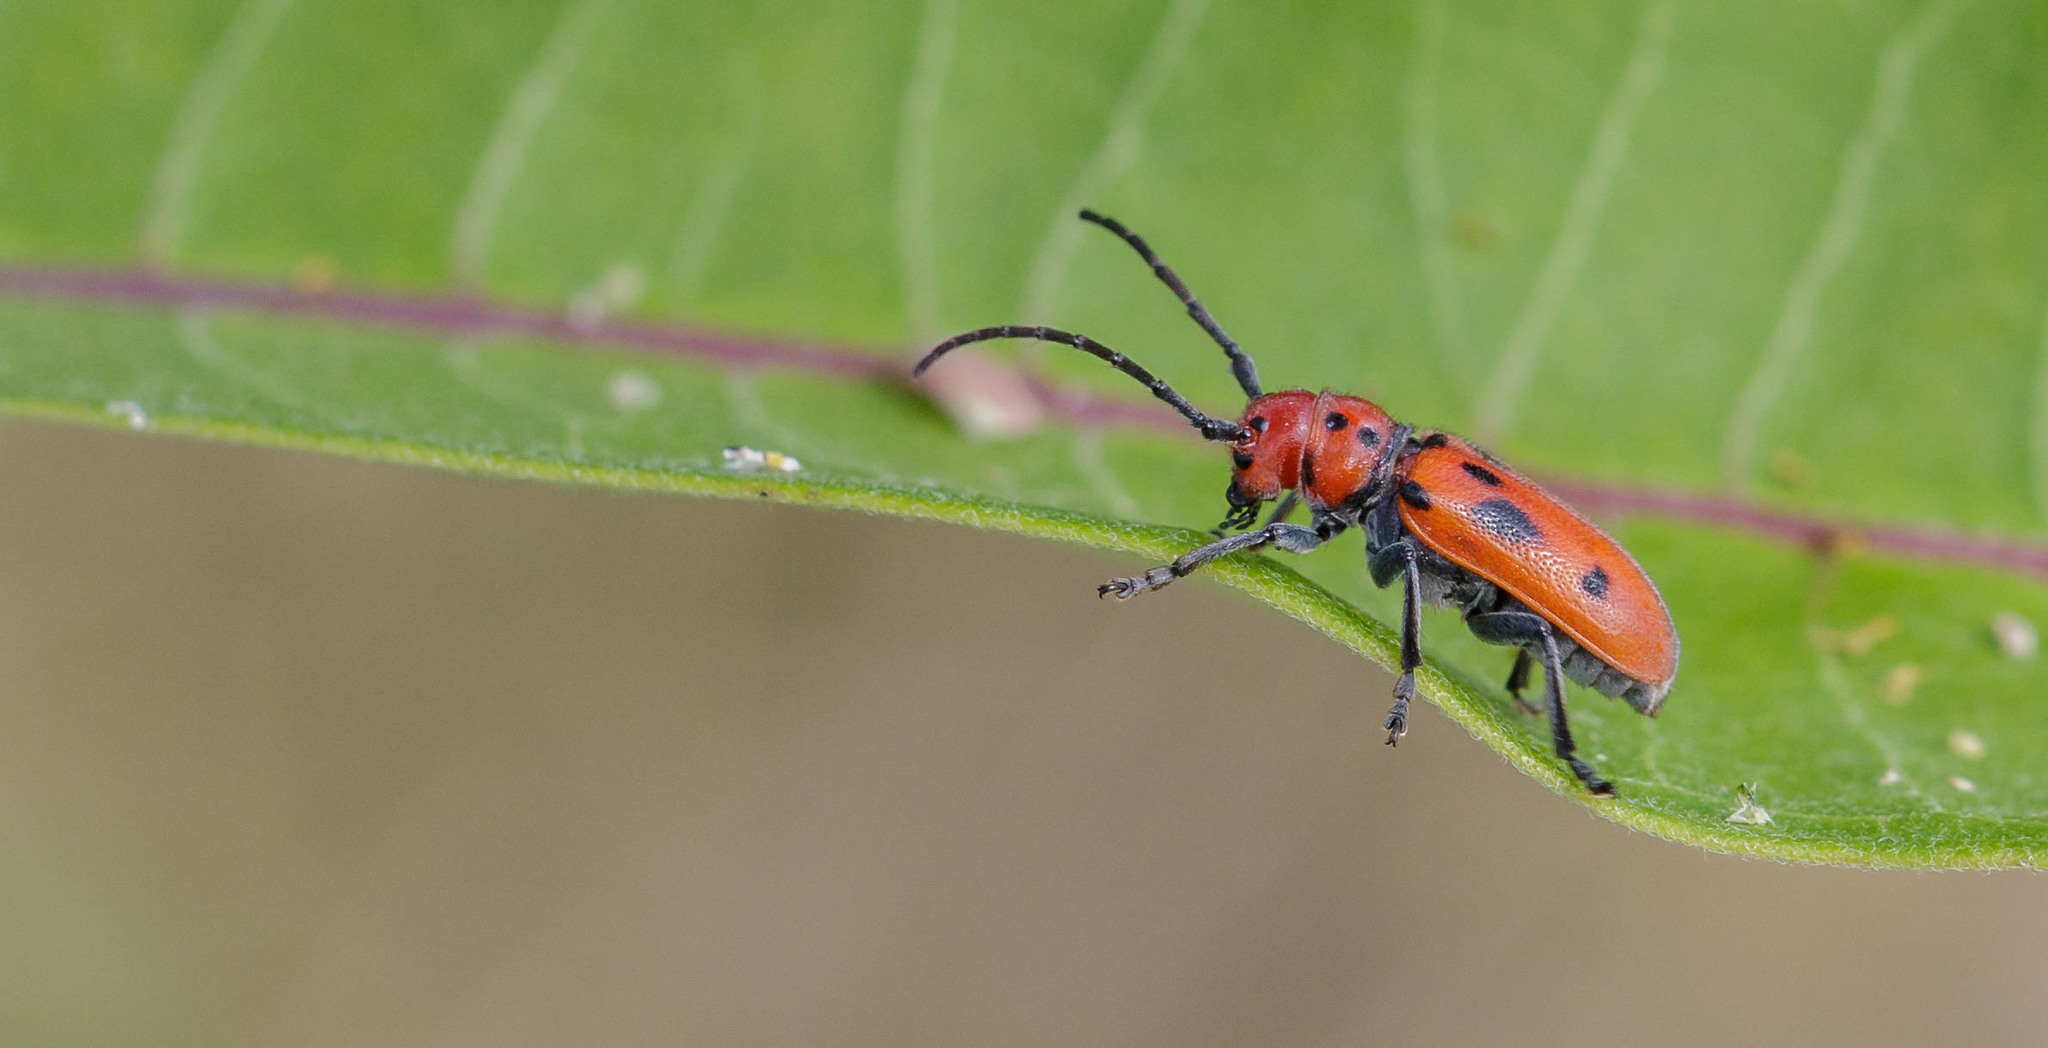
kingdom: Animalia
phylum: Arthropoda
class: Insecta
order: Coleoptera
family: Cerambycidae
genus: Tetraopes
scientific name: Tetraopes tetrophthalmus
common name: Red milkweed beetle
